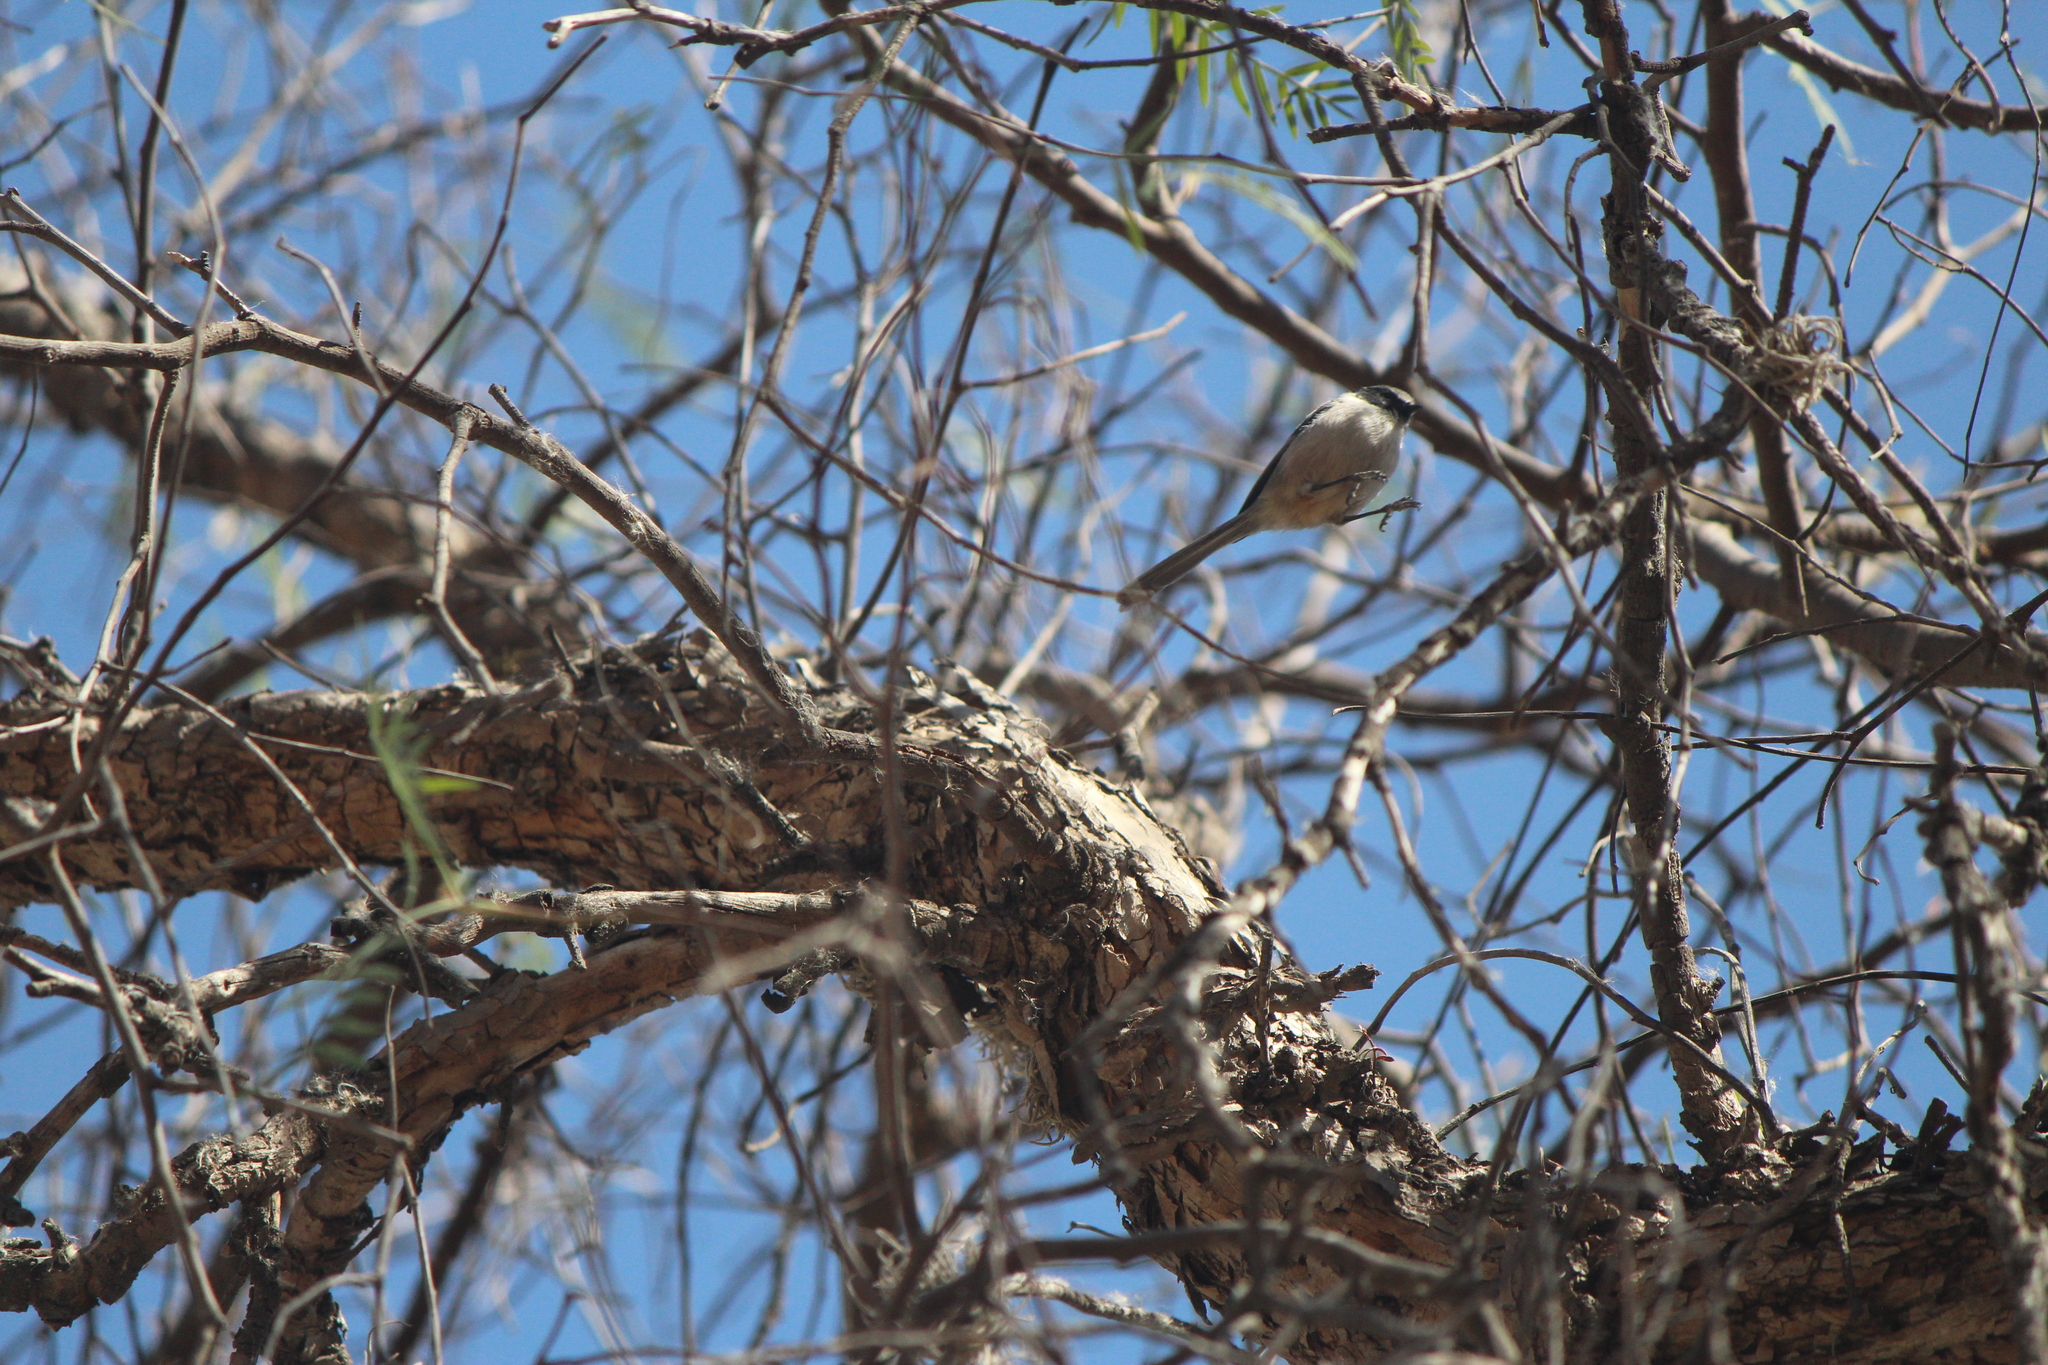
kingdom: Animalia
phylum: Chordata
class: Aves
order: Passeriformes
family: Aegithalidae
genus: Psaltriparus
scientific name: Psaltriparus minimus
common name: American bushtit
